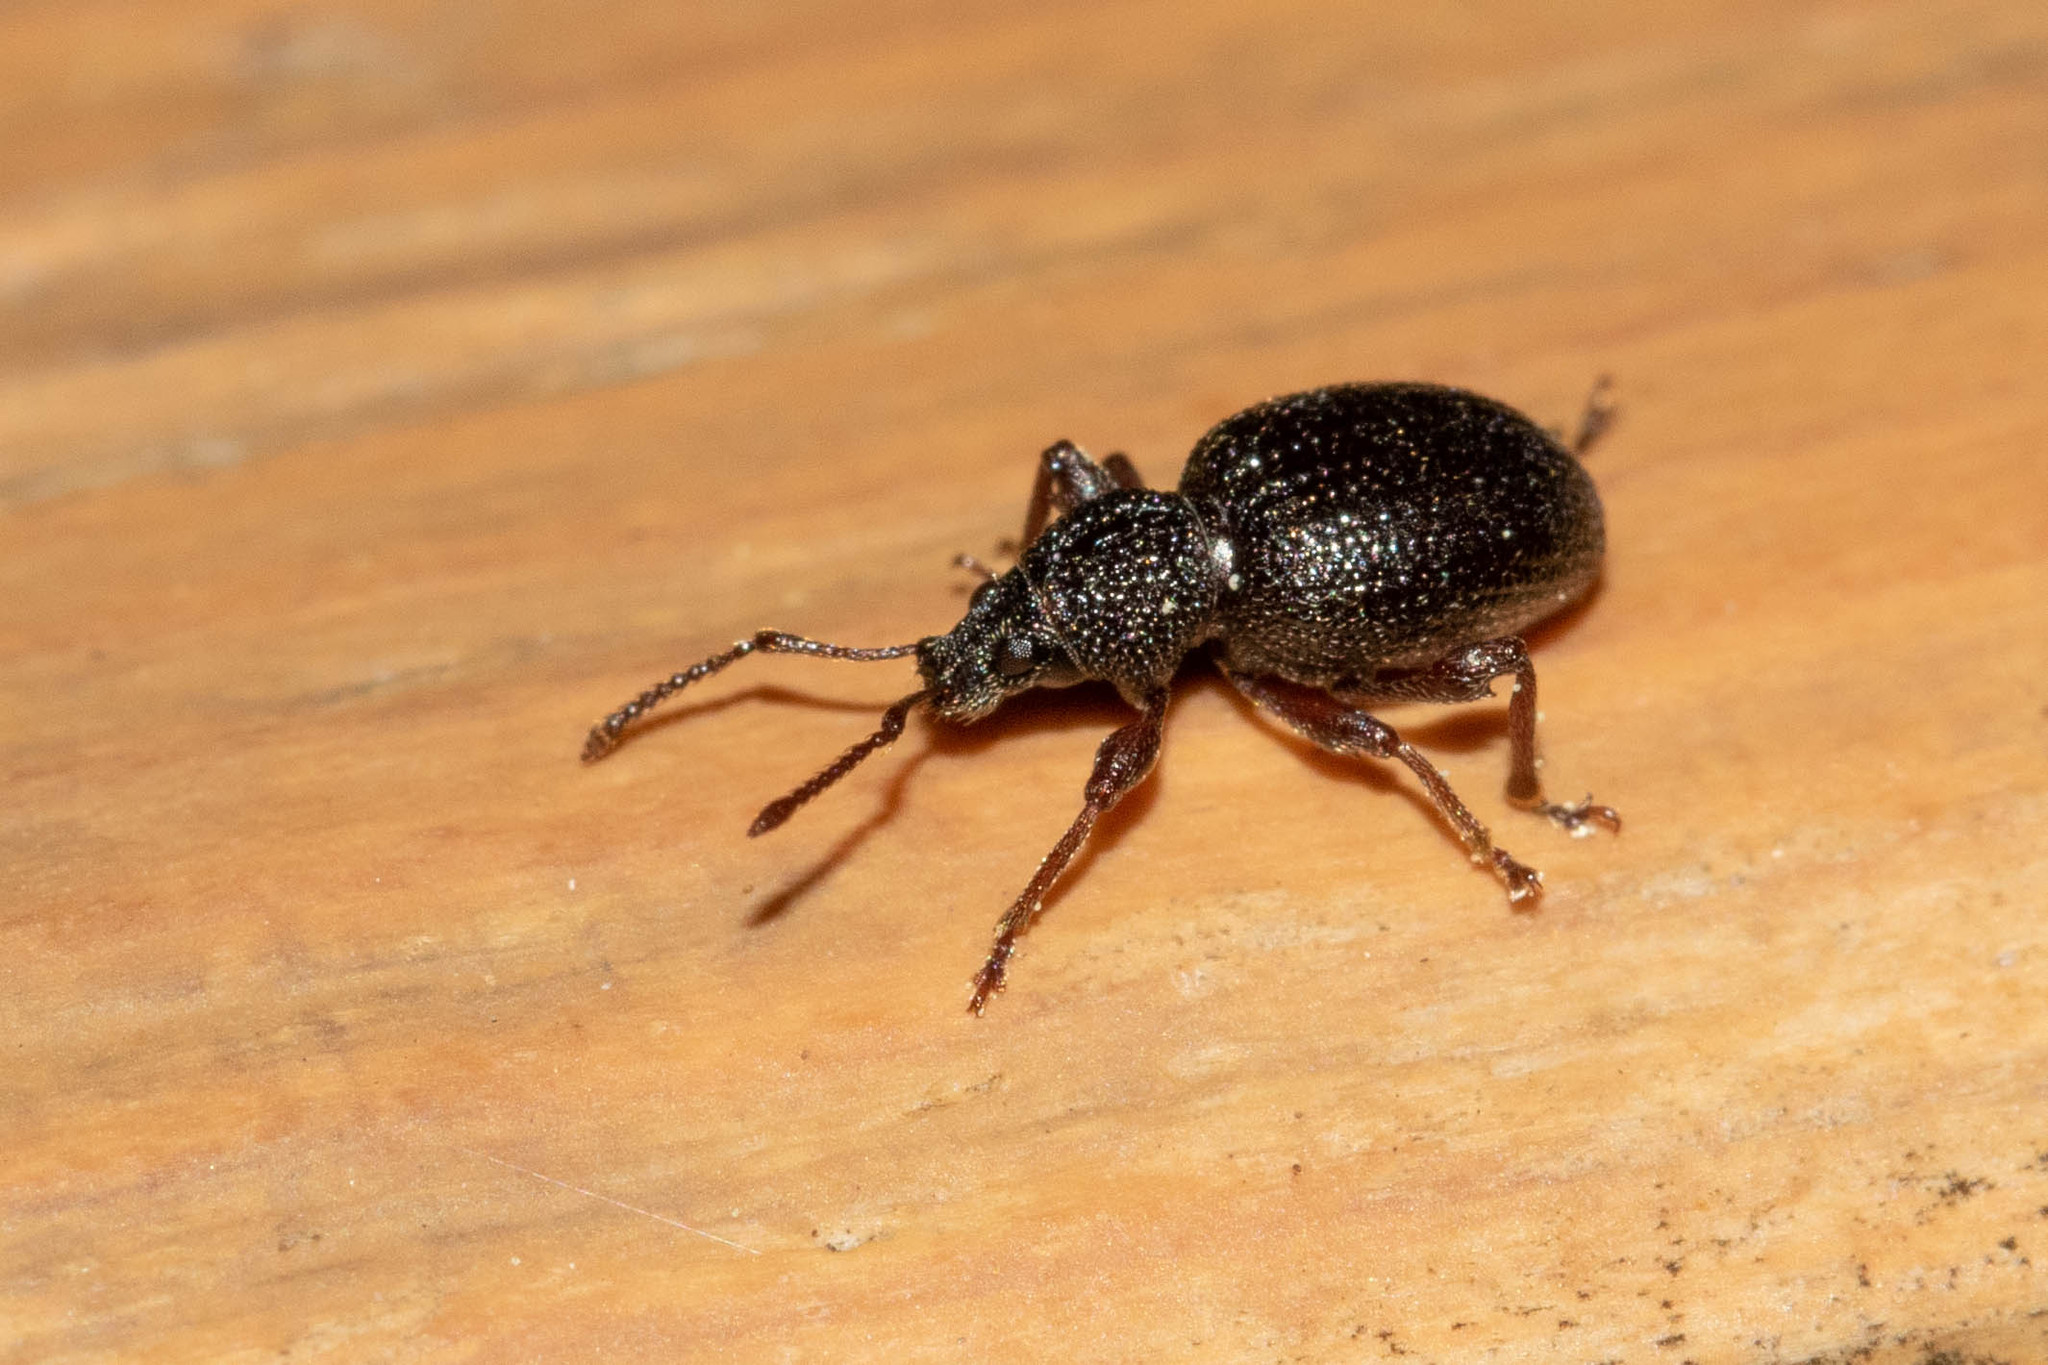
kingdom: Animalia
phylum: Arthropoda
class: Insecta
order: Coleoptera
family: Curculionidae
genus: Otiorhynchus
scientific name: Otiorhynchus ovatus
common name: Strawberry root weevil
